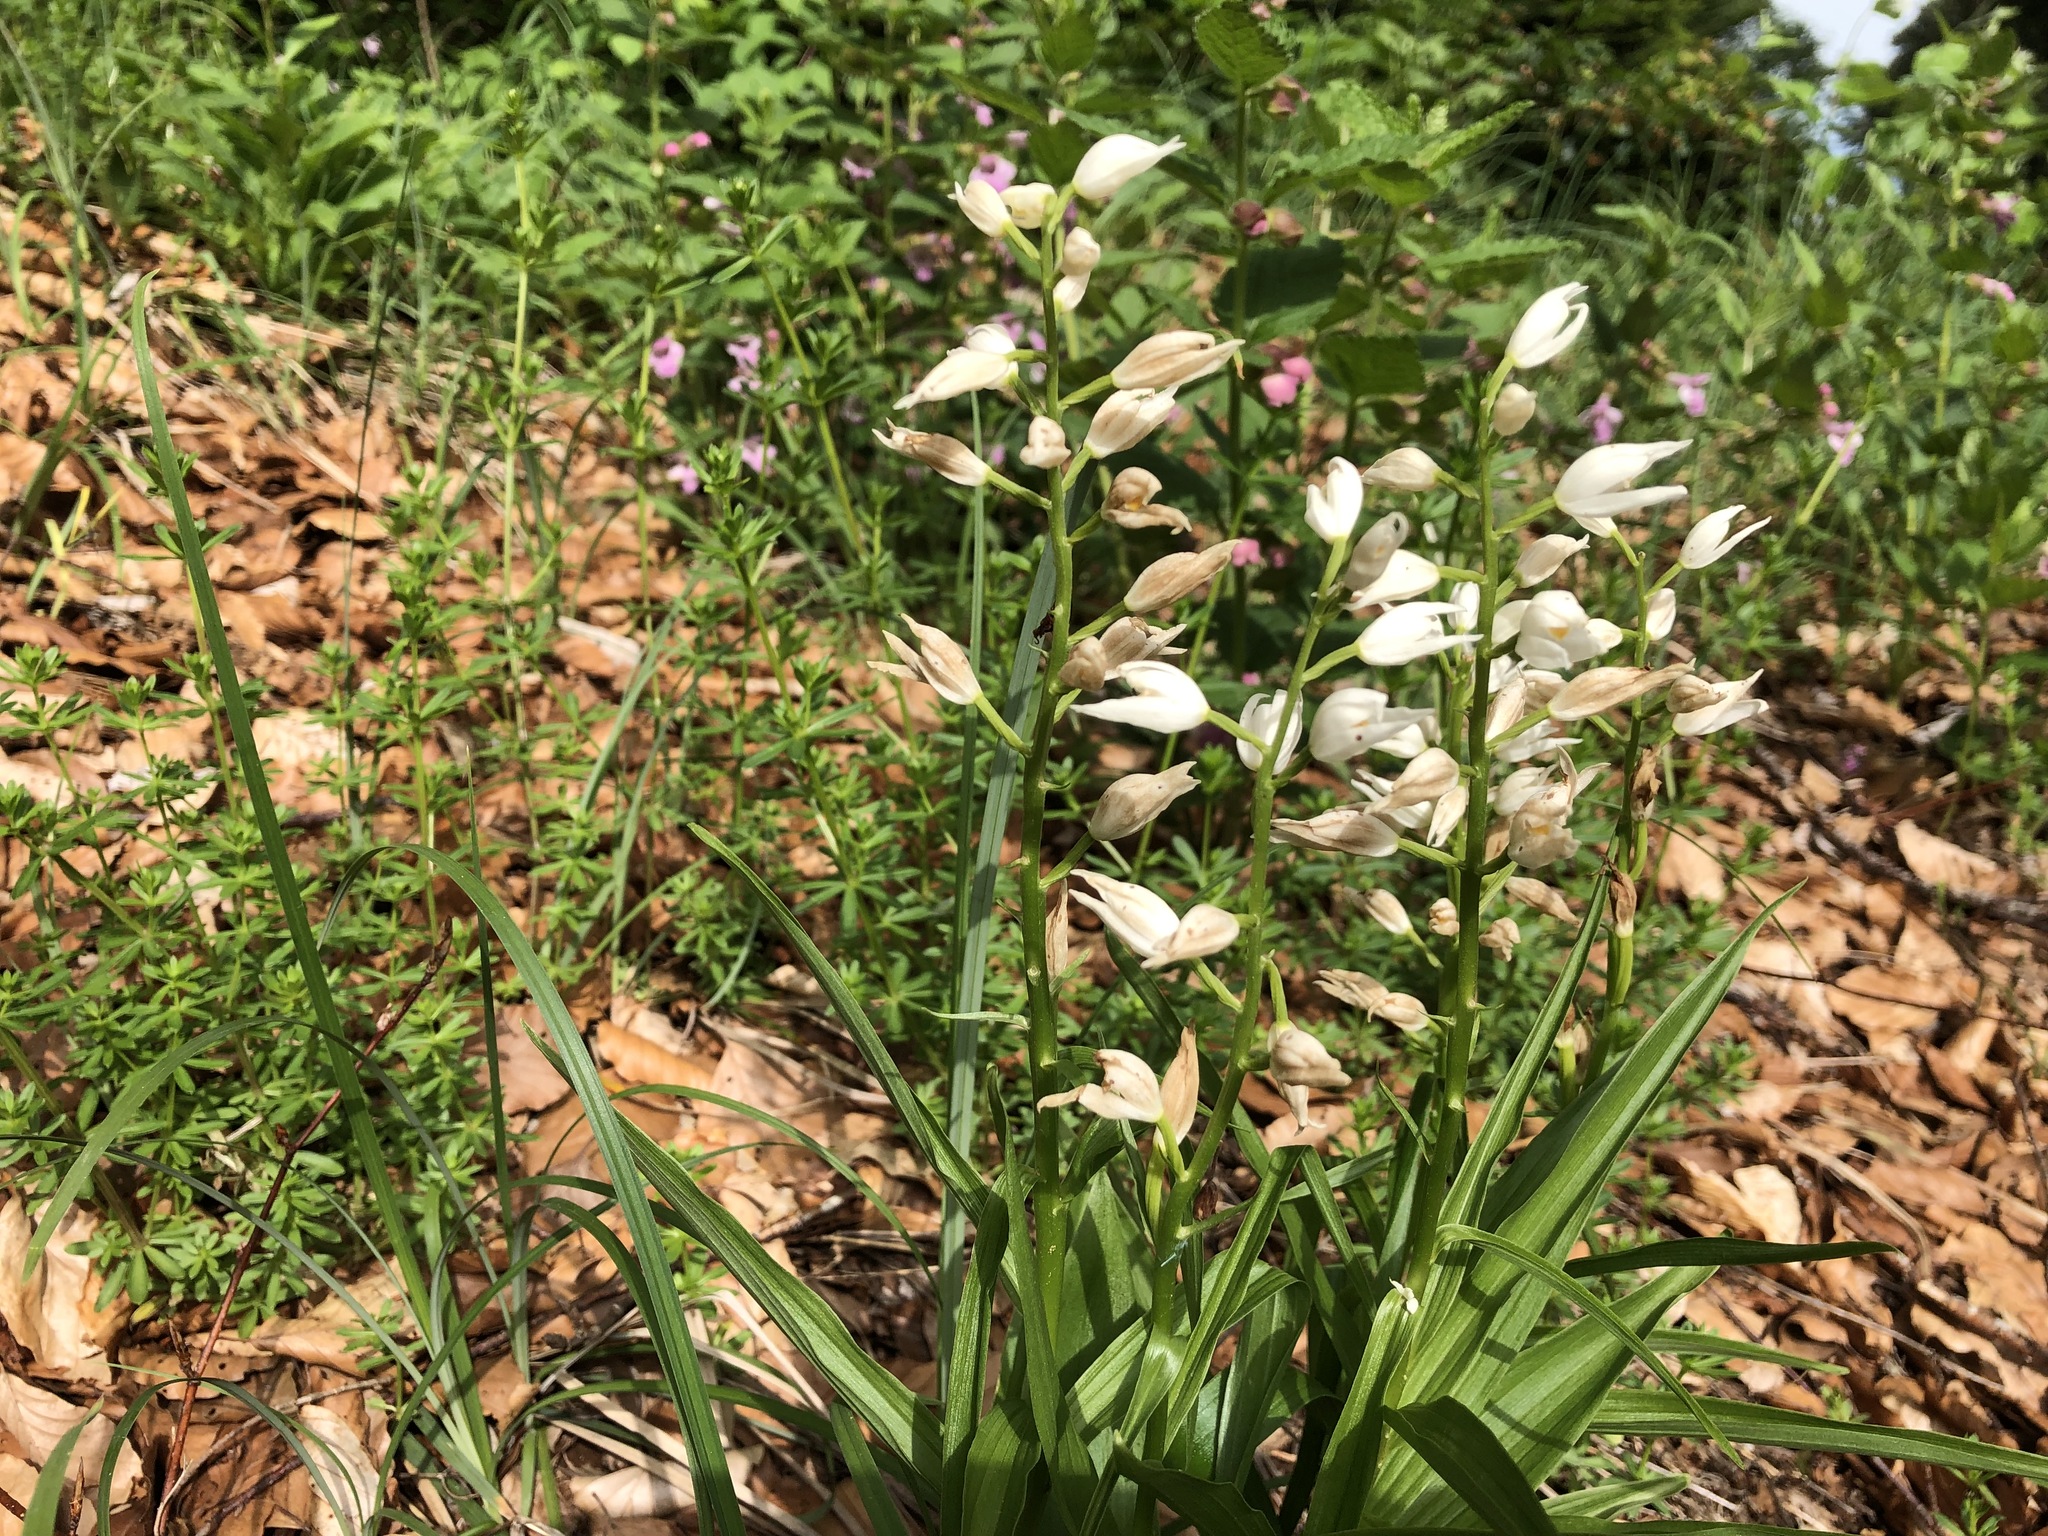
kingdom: Plantae
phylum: Tracheophyta
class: Liliopsida
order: Asparagales
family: Orchidaceae
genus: Cephalanthera
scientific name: Cephalanthera longifolia
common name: Narrow-leaved helleborine
